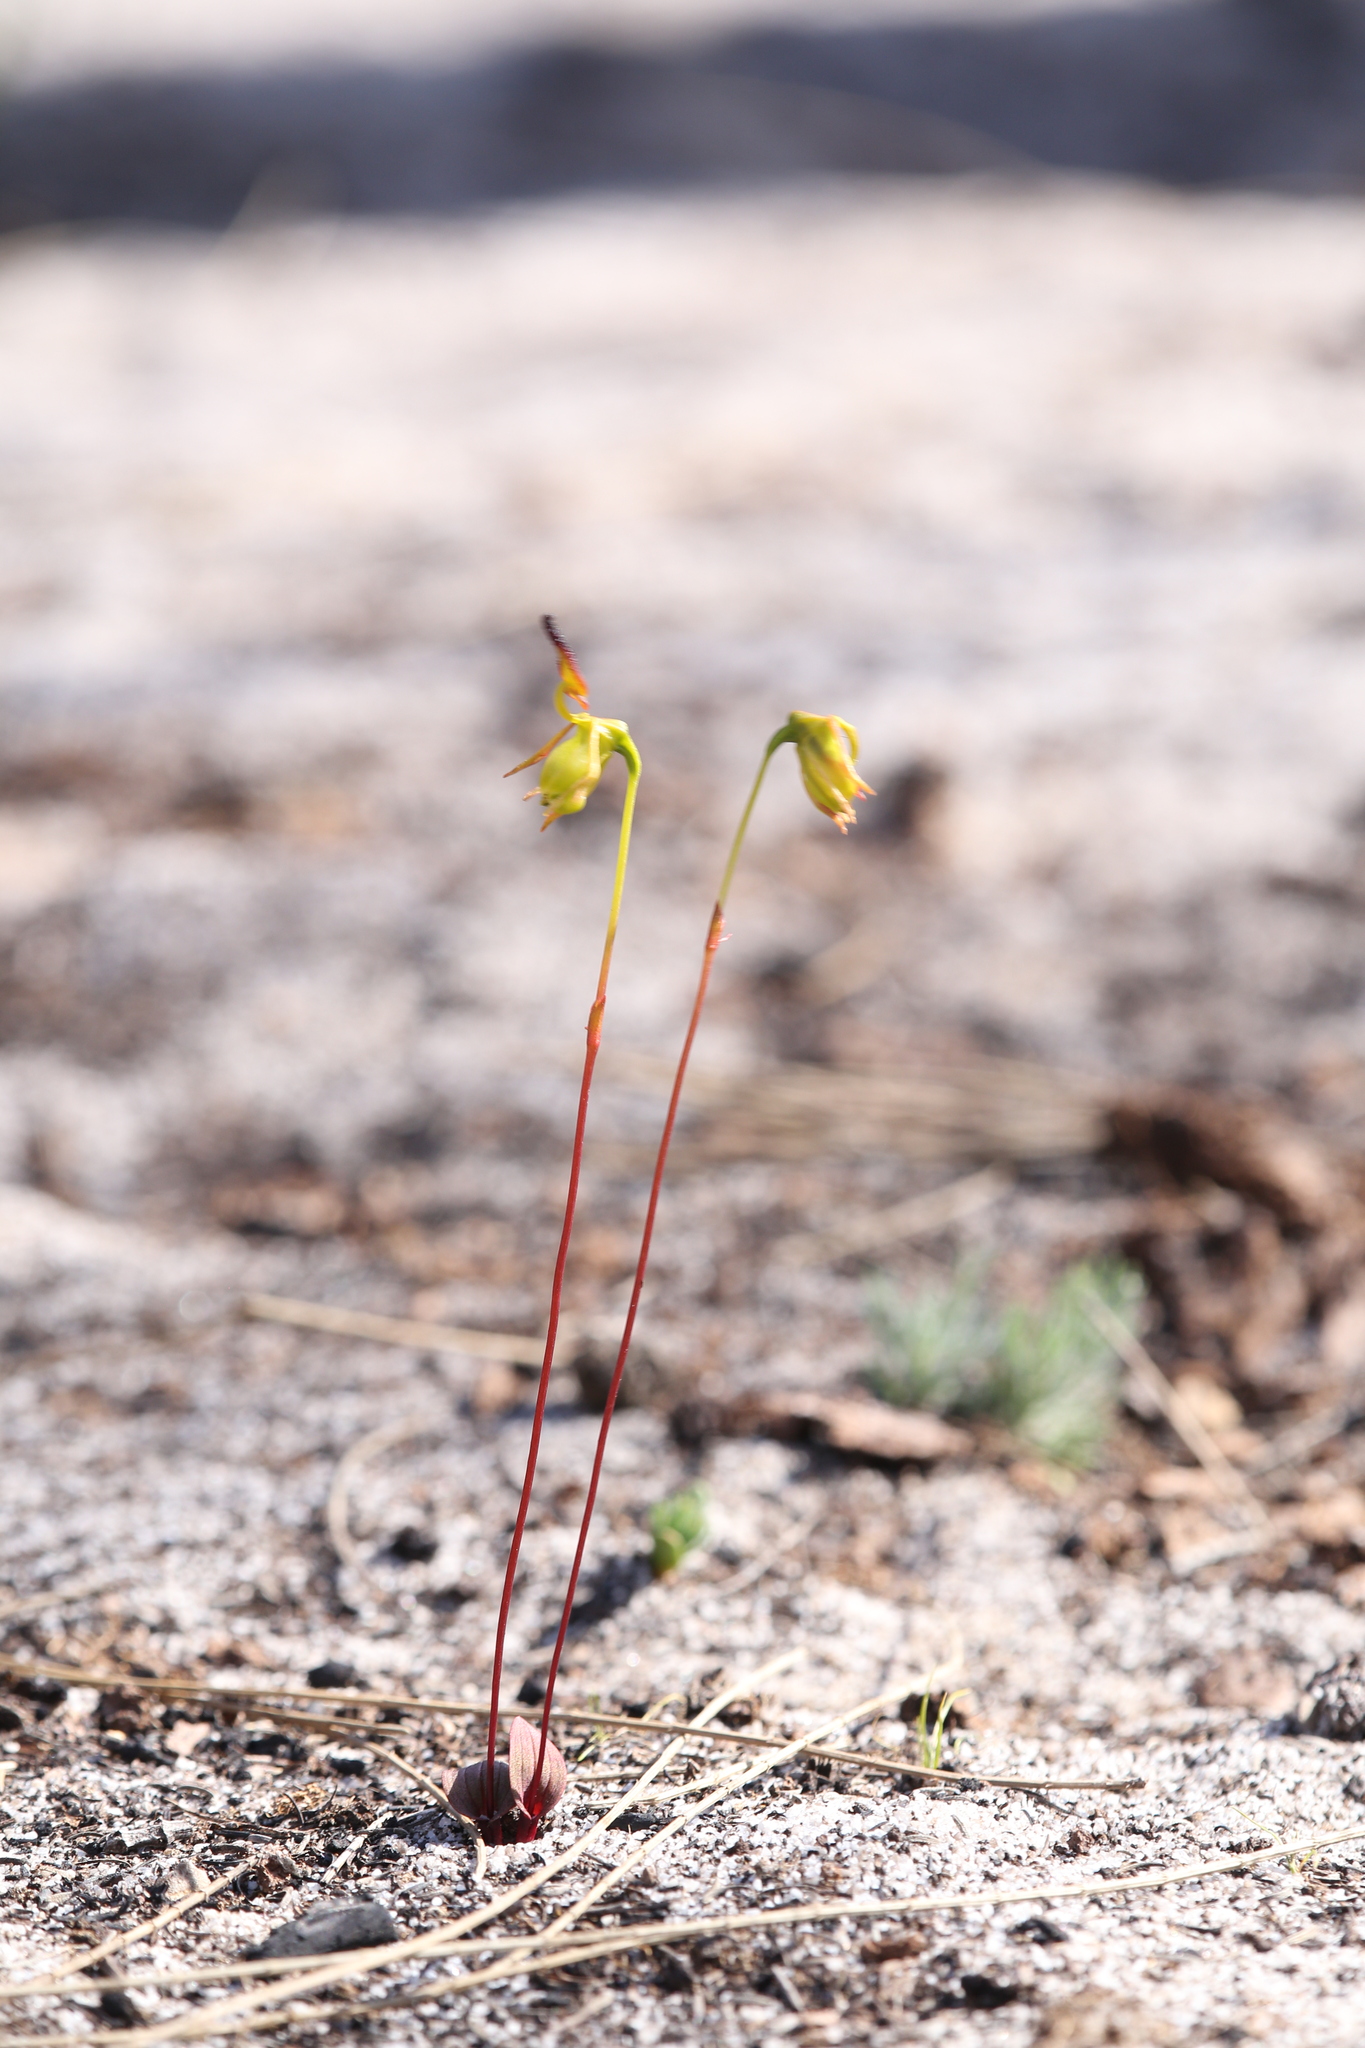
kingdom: Plantae
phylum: Tracheophyta
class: Liliopsida
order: Asparagales
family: Orchidaceae
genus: Caleana
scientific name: Caleana nigrita
